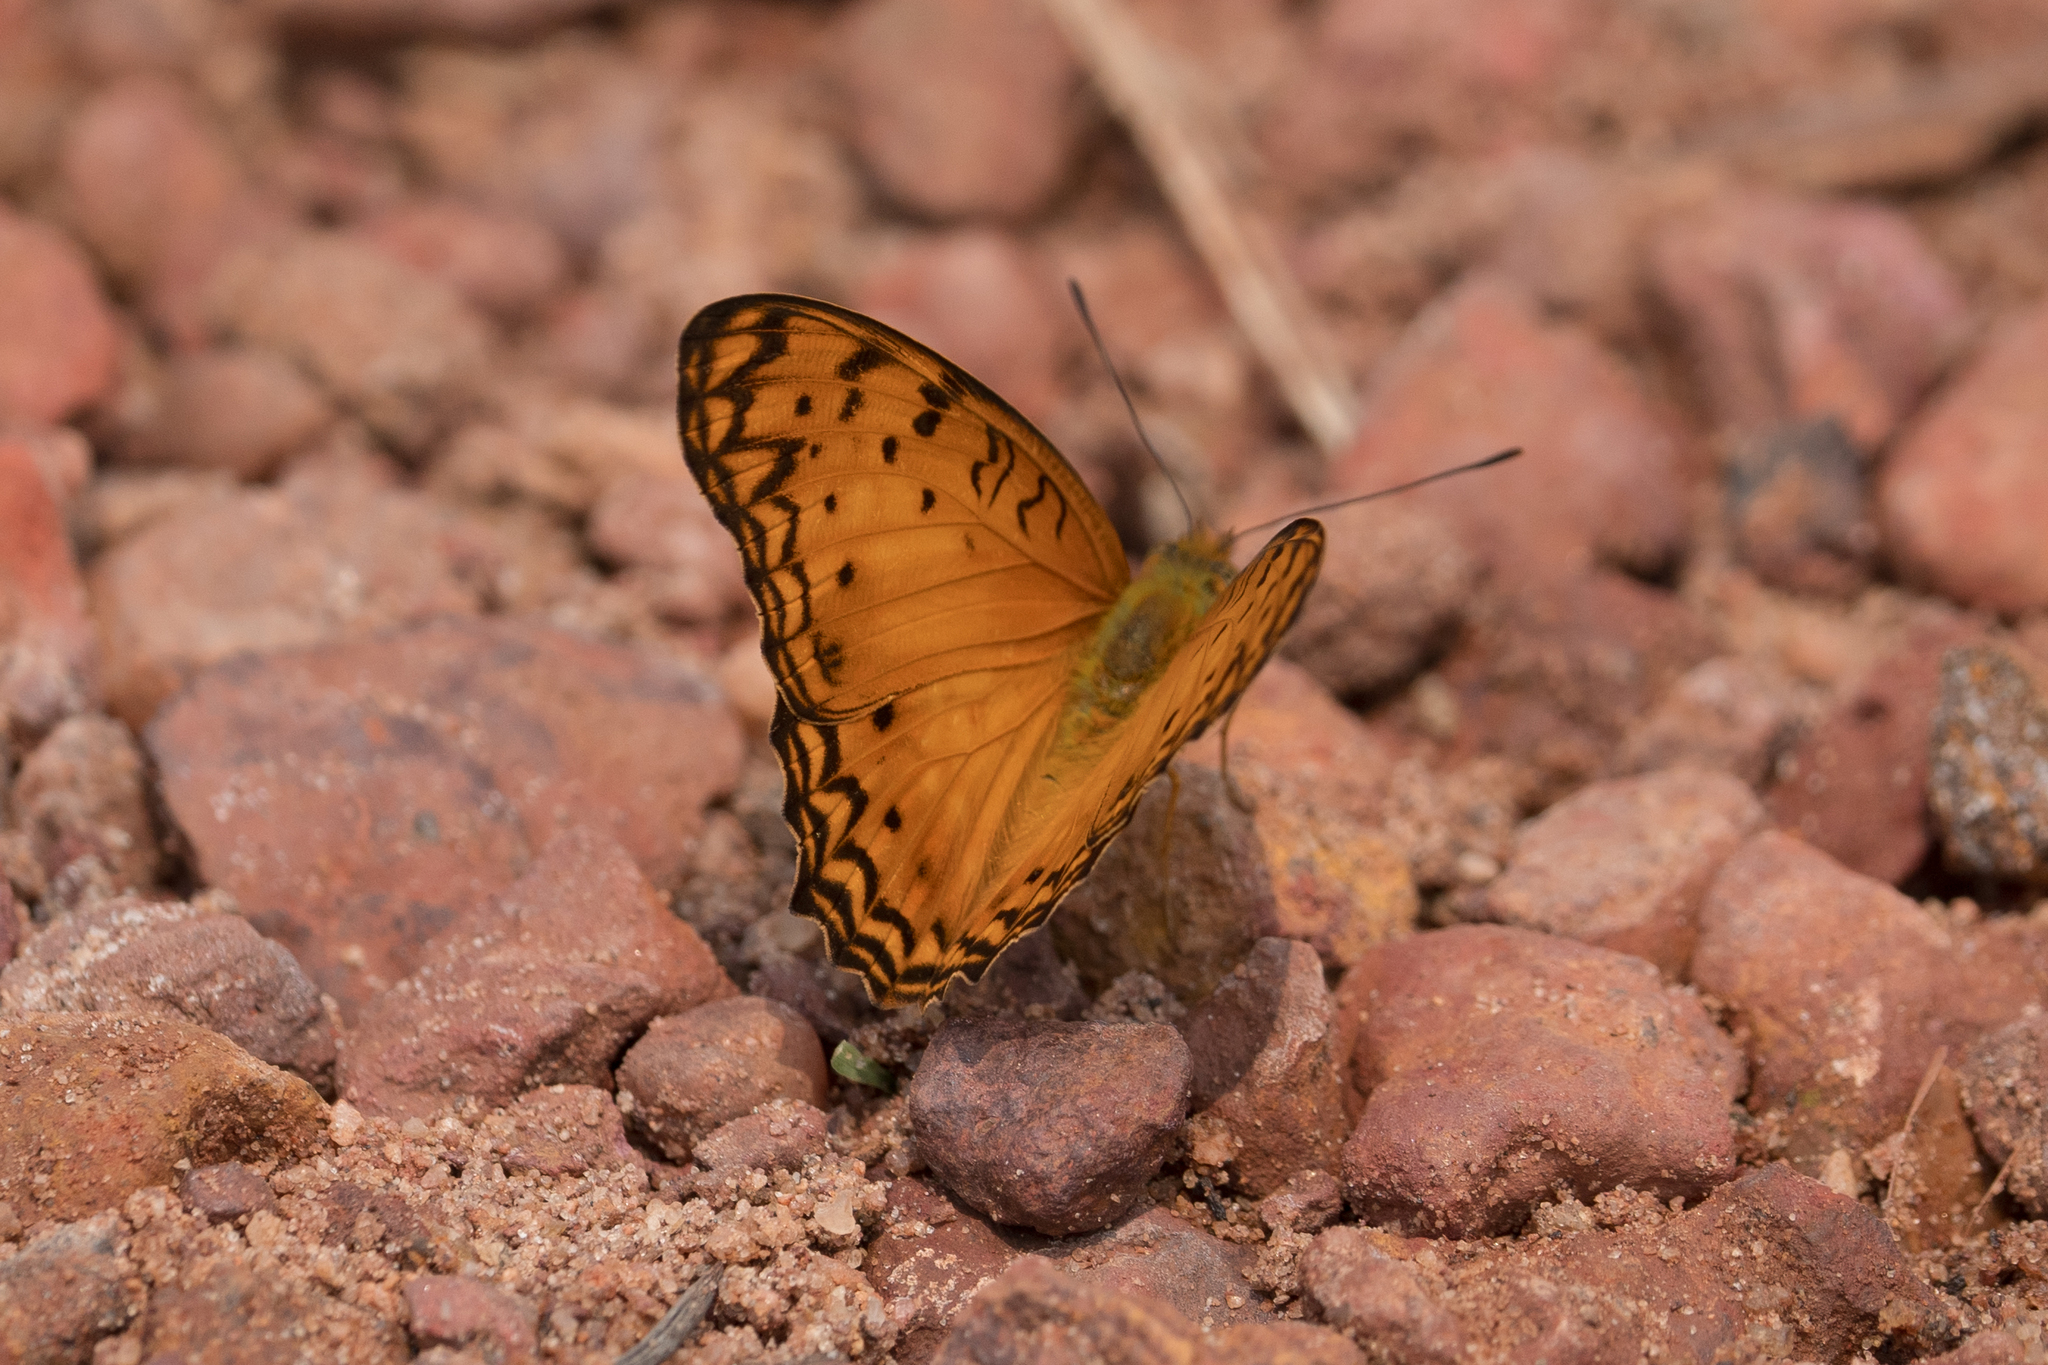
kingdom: Animalia
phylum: Arthropoda
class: Insecta
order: Lepidoptera
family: Nymphalidae
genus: Phalanta
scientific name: Phalanta columbina
